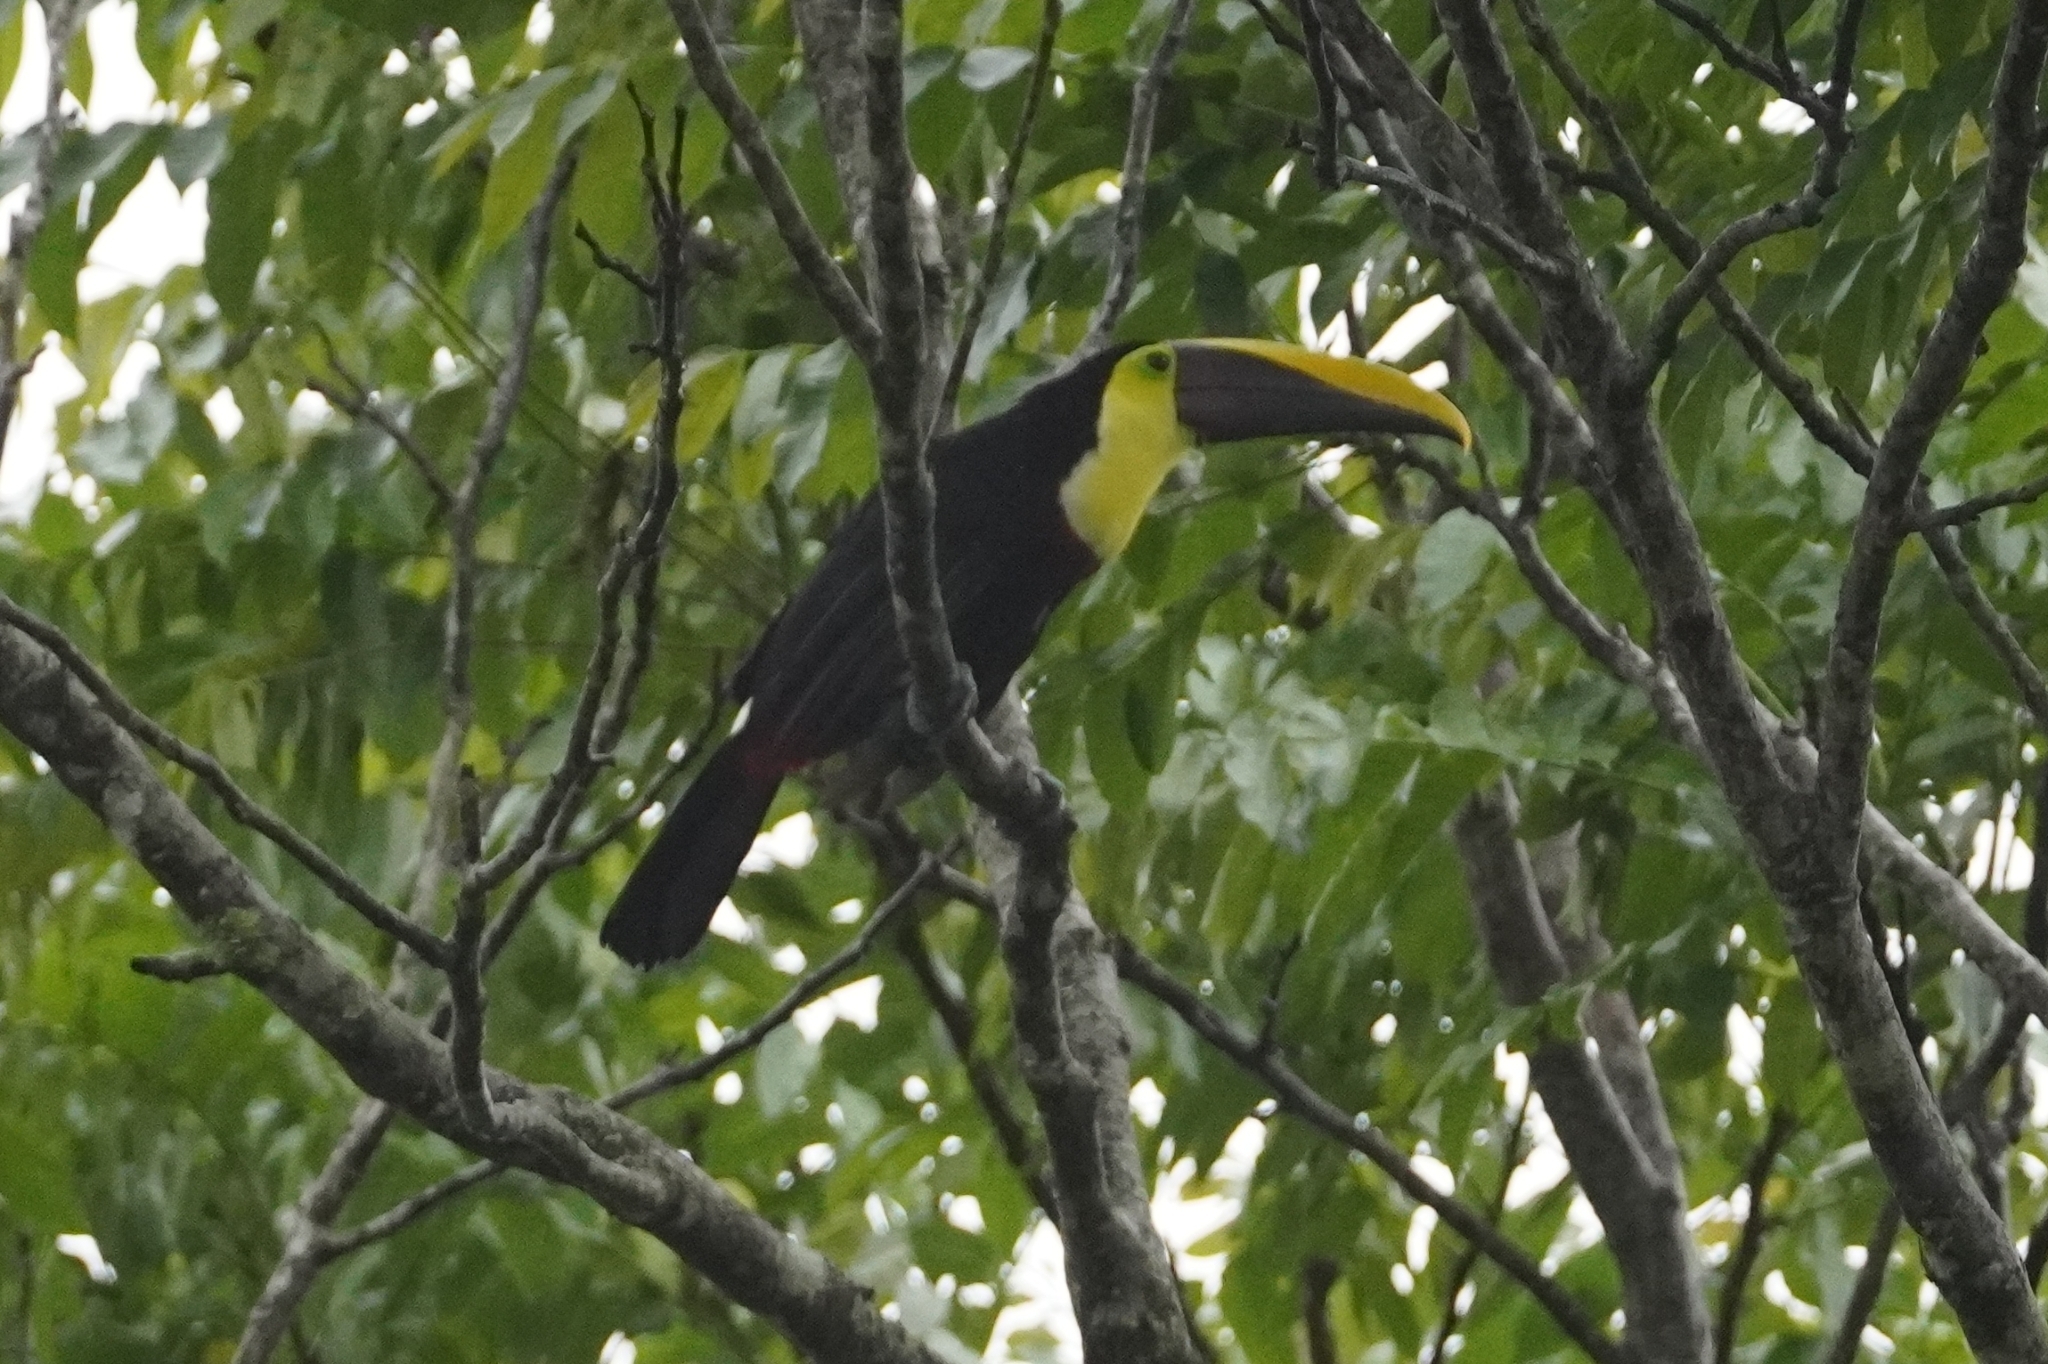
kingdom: Animalia
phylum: Chordata
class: Aves
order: Piciformes
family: Ramphastidae
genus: Ramphastos
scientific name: Ramphastos ambiguus
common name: Yellow-throated toucan
